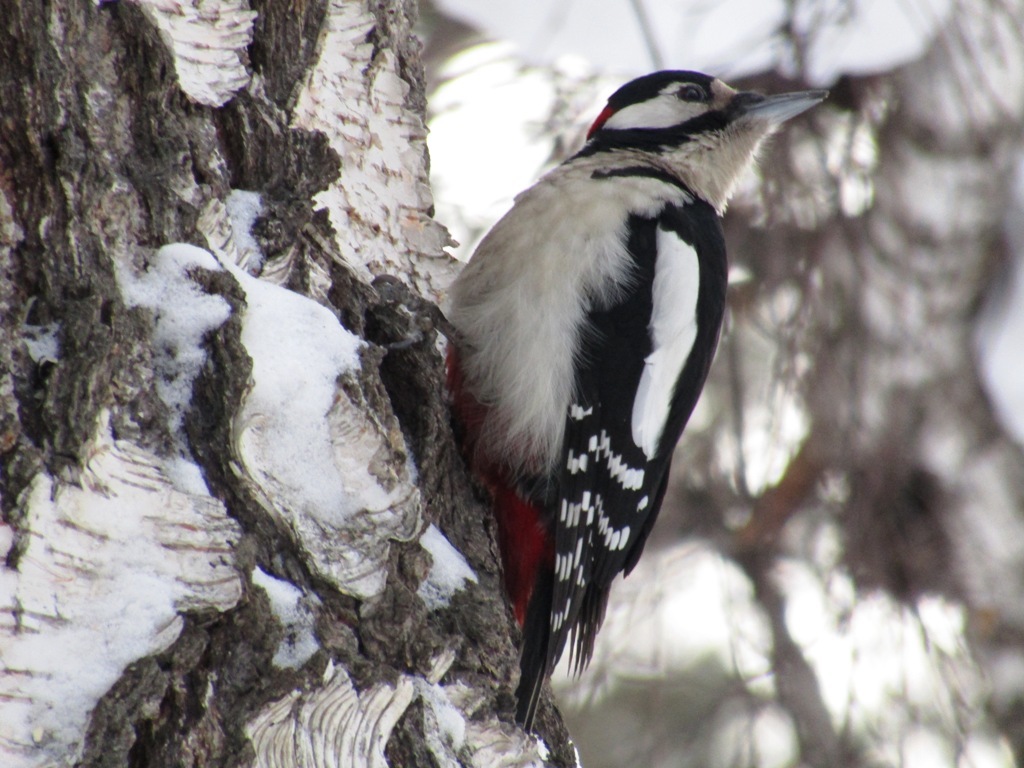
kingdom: Animalia
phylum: Chordata
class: Aves
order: Piciformes
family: Picidae
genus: Dendrocopos
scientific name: Dendrocopos major
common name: Great spotted woodpecker
